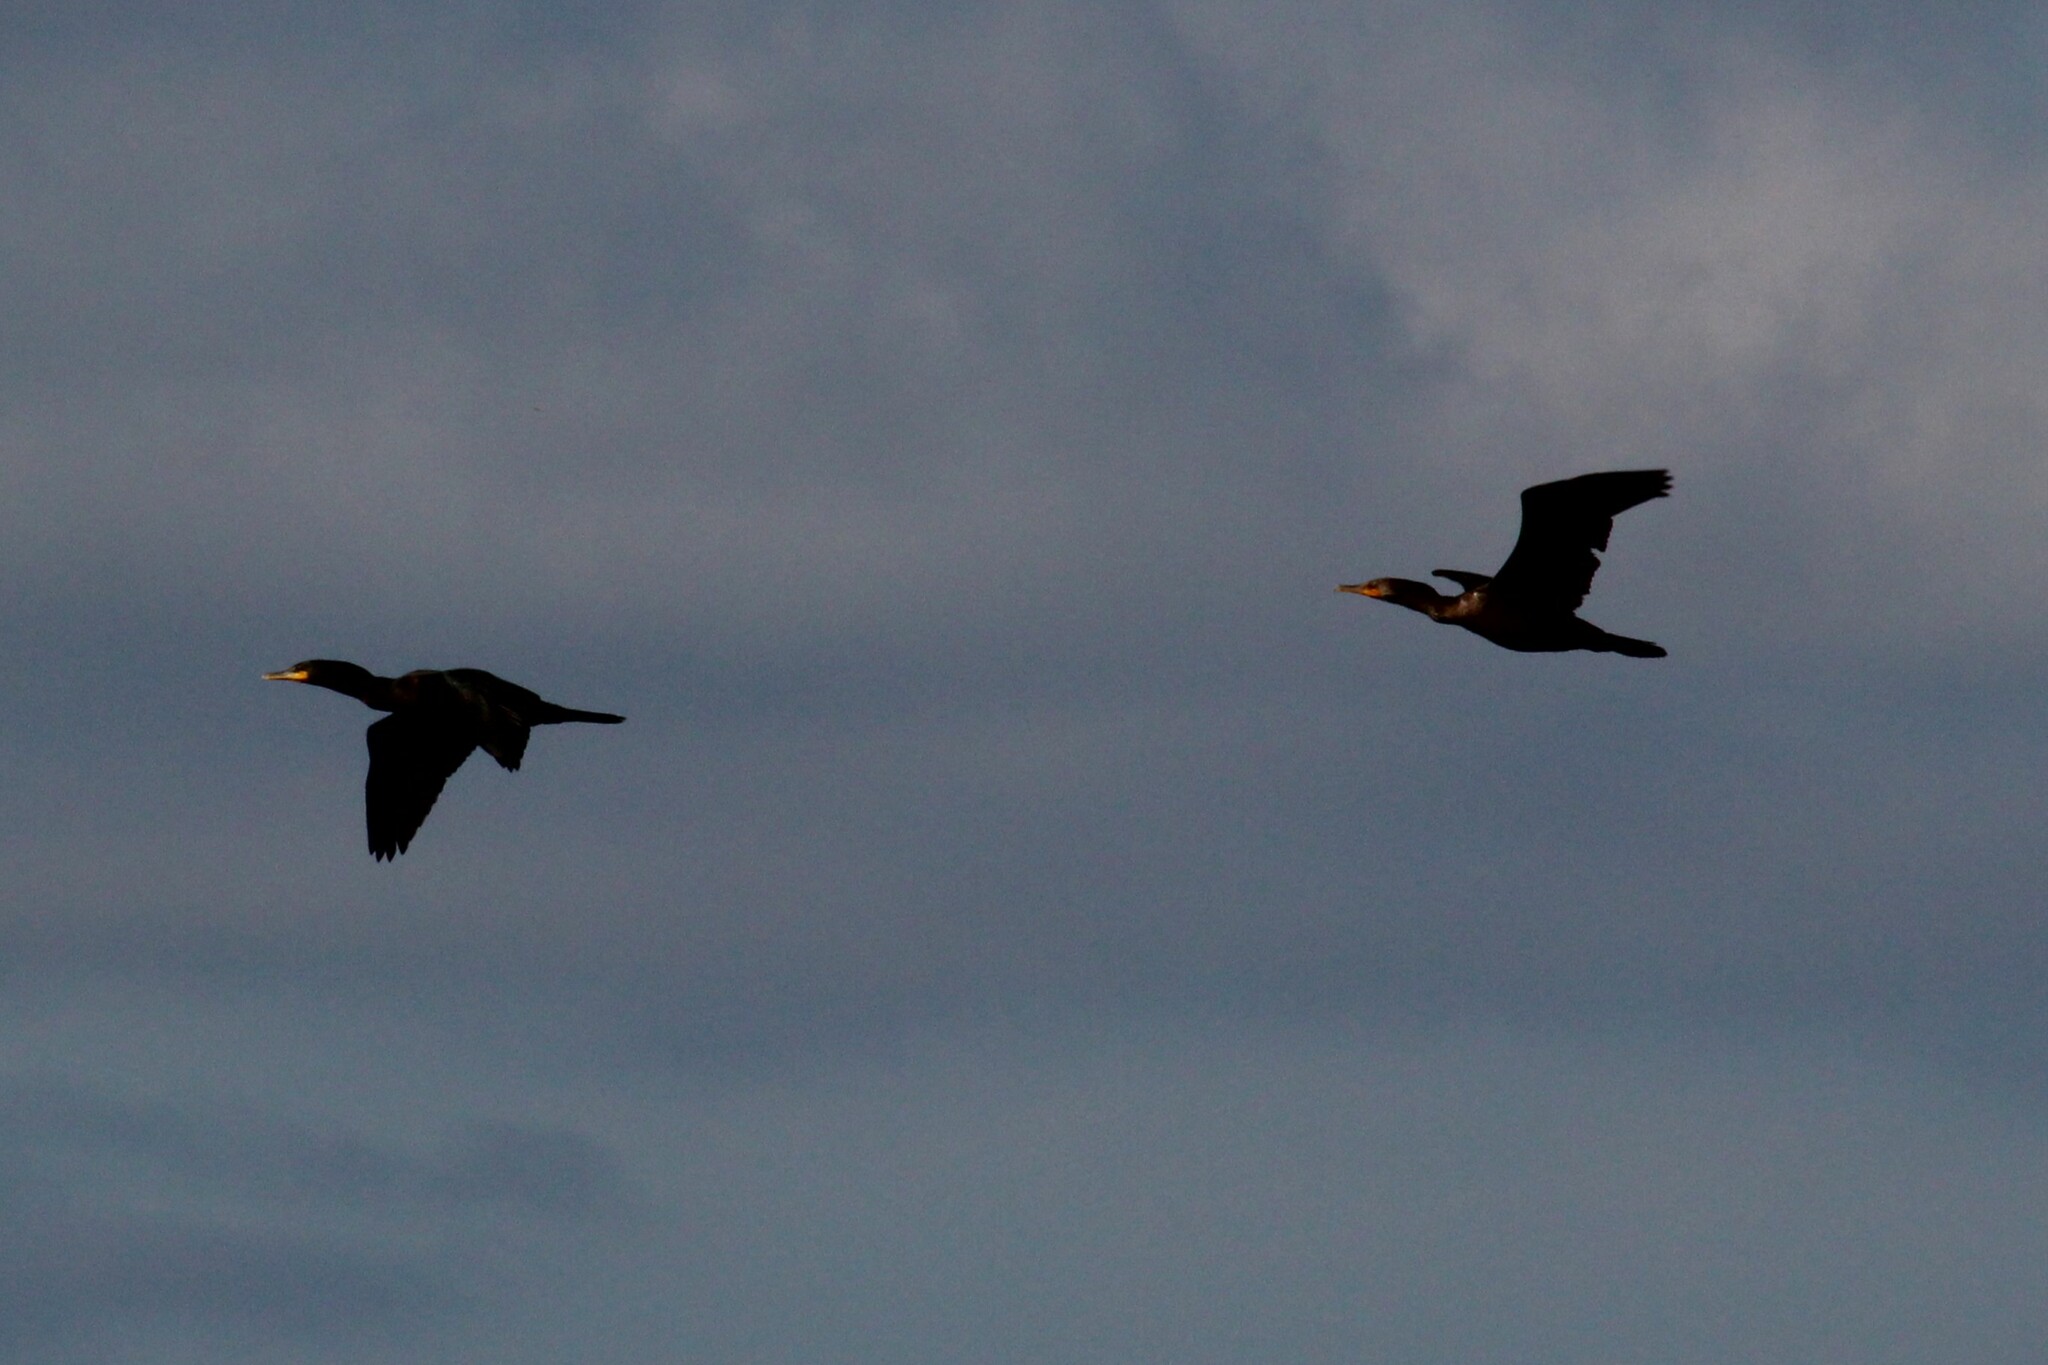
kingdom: Animalia
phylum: Chordata
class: Aves
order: Suliformes
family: Phalacrocoracidae
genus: Phalacrocorax
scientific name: Phalacrocorax auritus
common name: Double-crested cormorant
